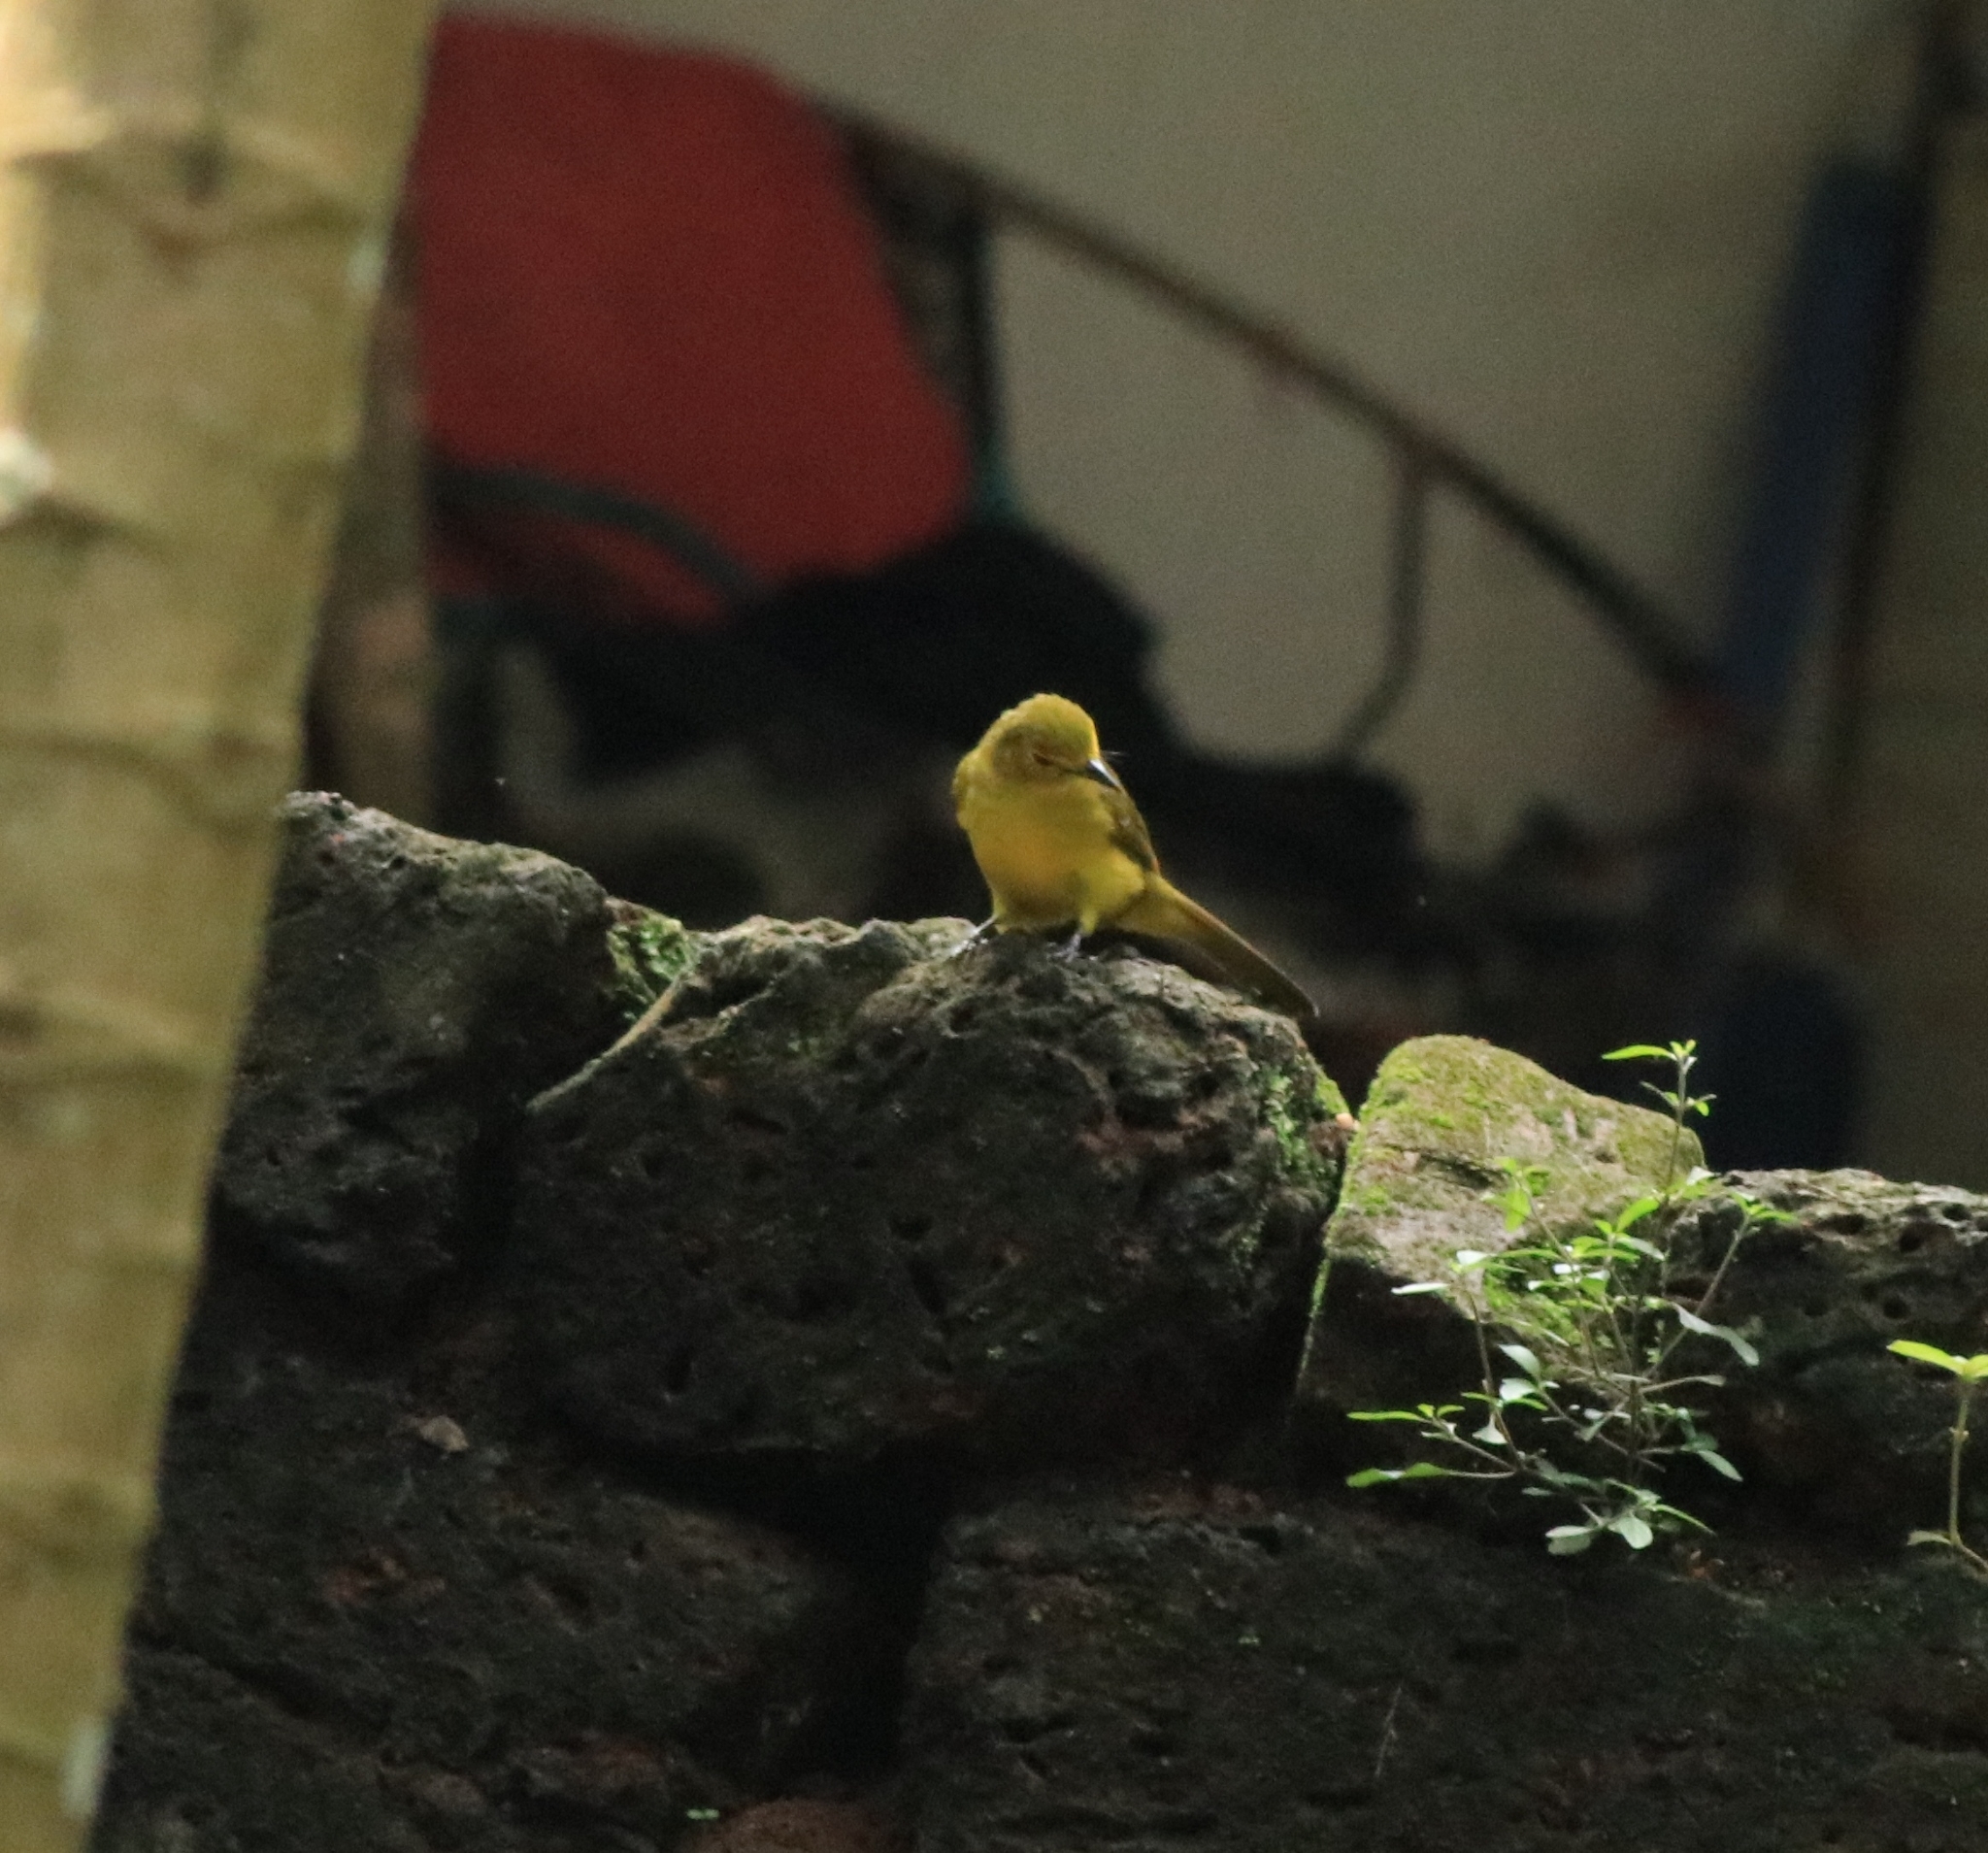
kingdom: Animalia
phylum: Chordata
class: Aves
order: Passeriformes
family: Pycnonotidae
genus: Acritillas
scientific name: Acritillas indica
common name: Yellow-browed bulbul
